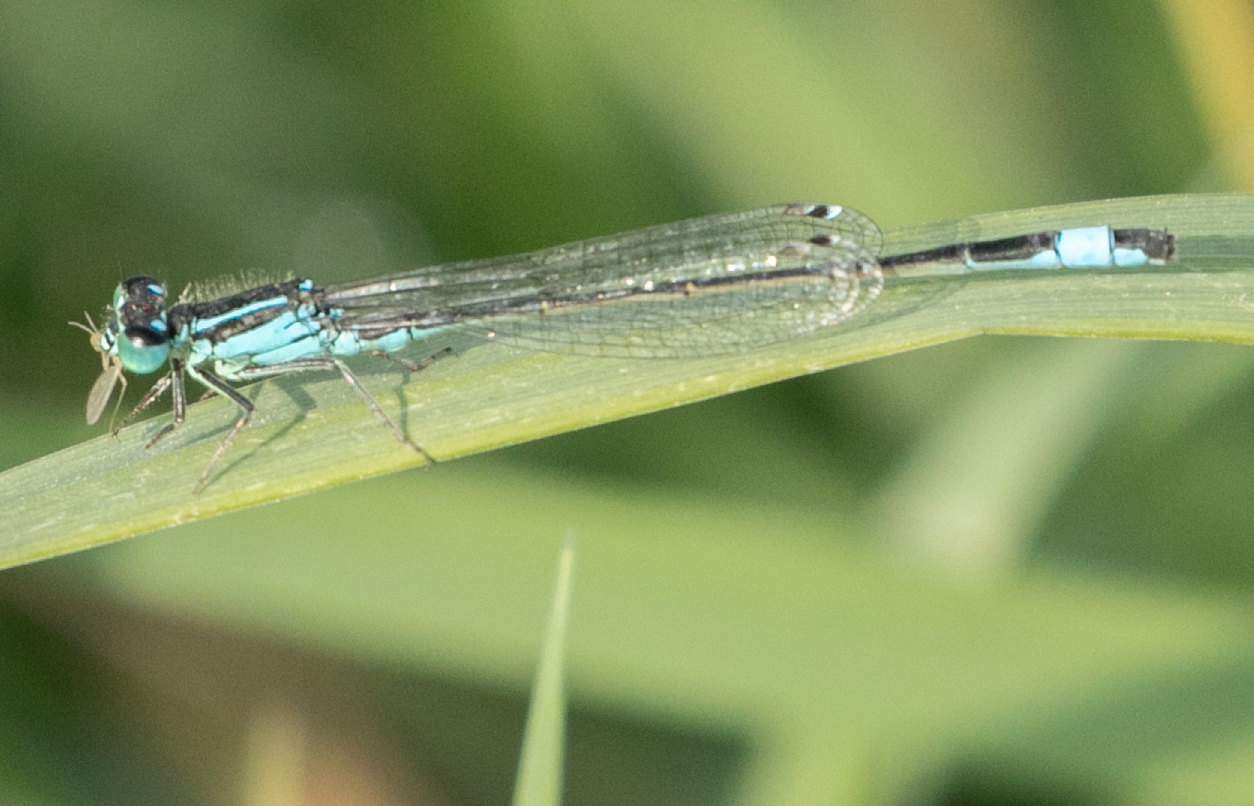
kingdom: Animalia
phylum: Arthropoda
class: Insecta
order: Odonata
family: Coenagrionidae
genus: Ischnura
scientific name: Ischnura elegans
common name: Blue-tailed damselfly
